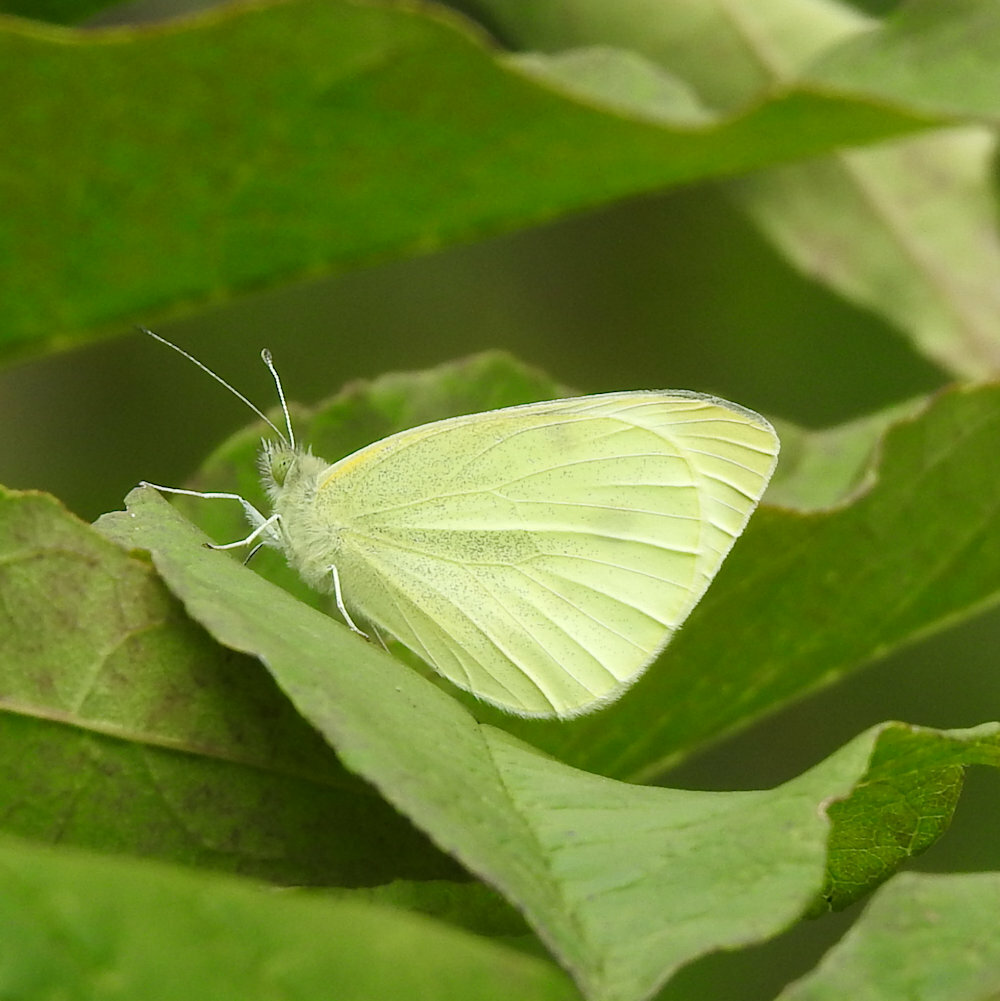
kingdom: Animalia
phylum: Arthropoda
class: Insecta
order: Lepidoptera
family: Pieridae
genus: Pieris
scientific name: Pieris rapae
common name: Small white
